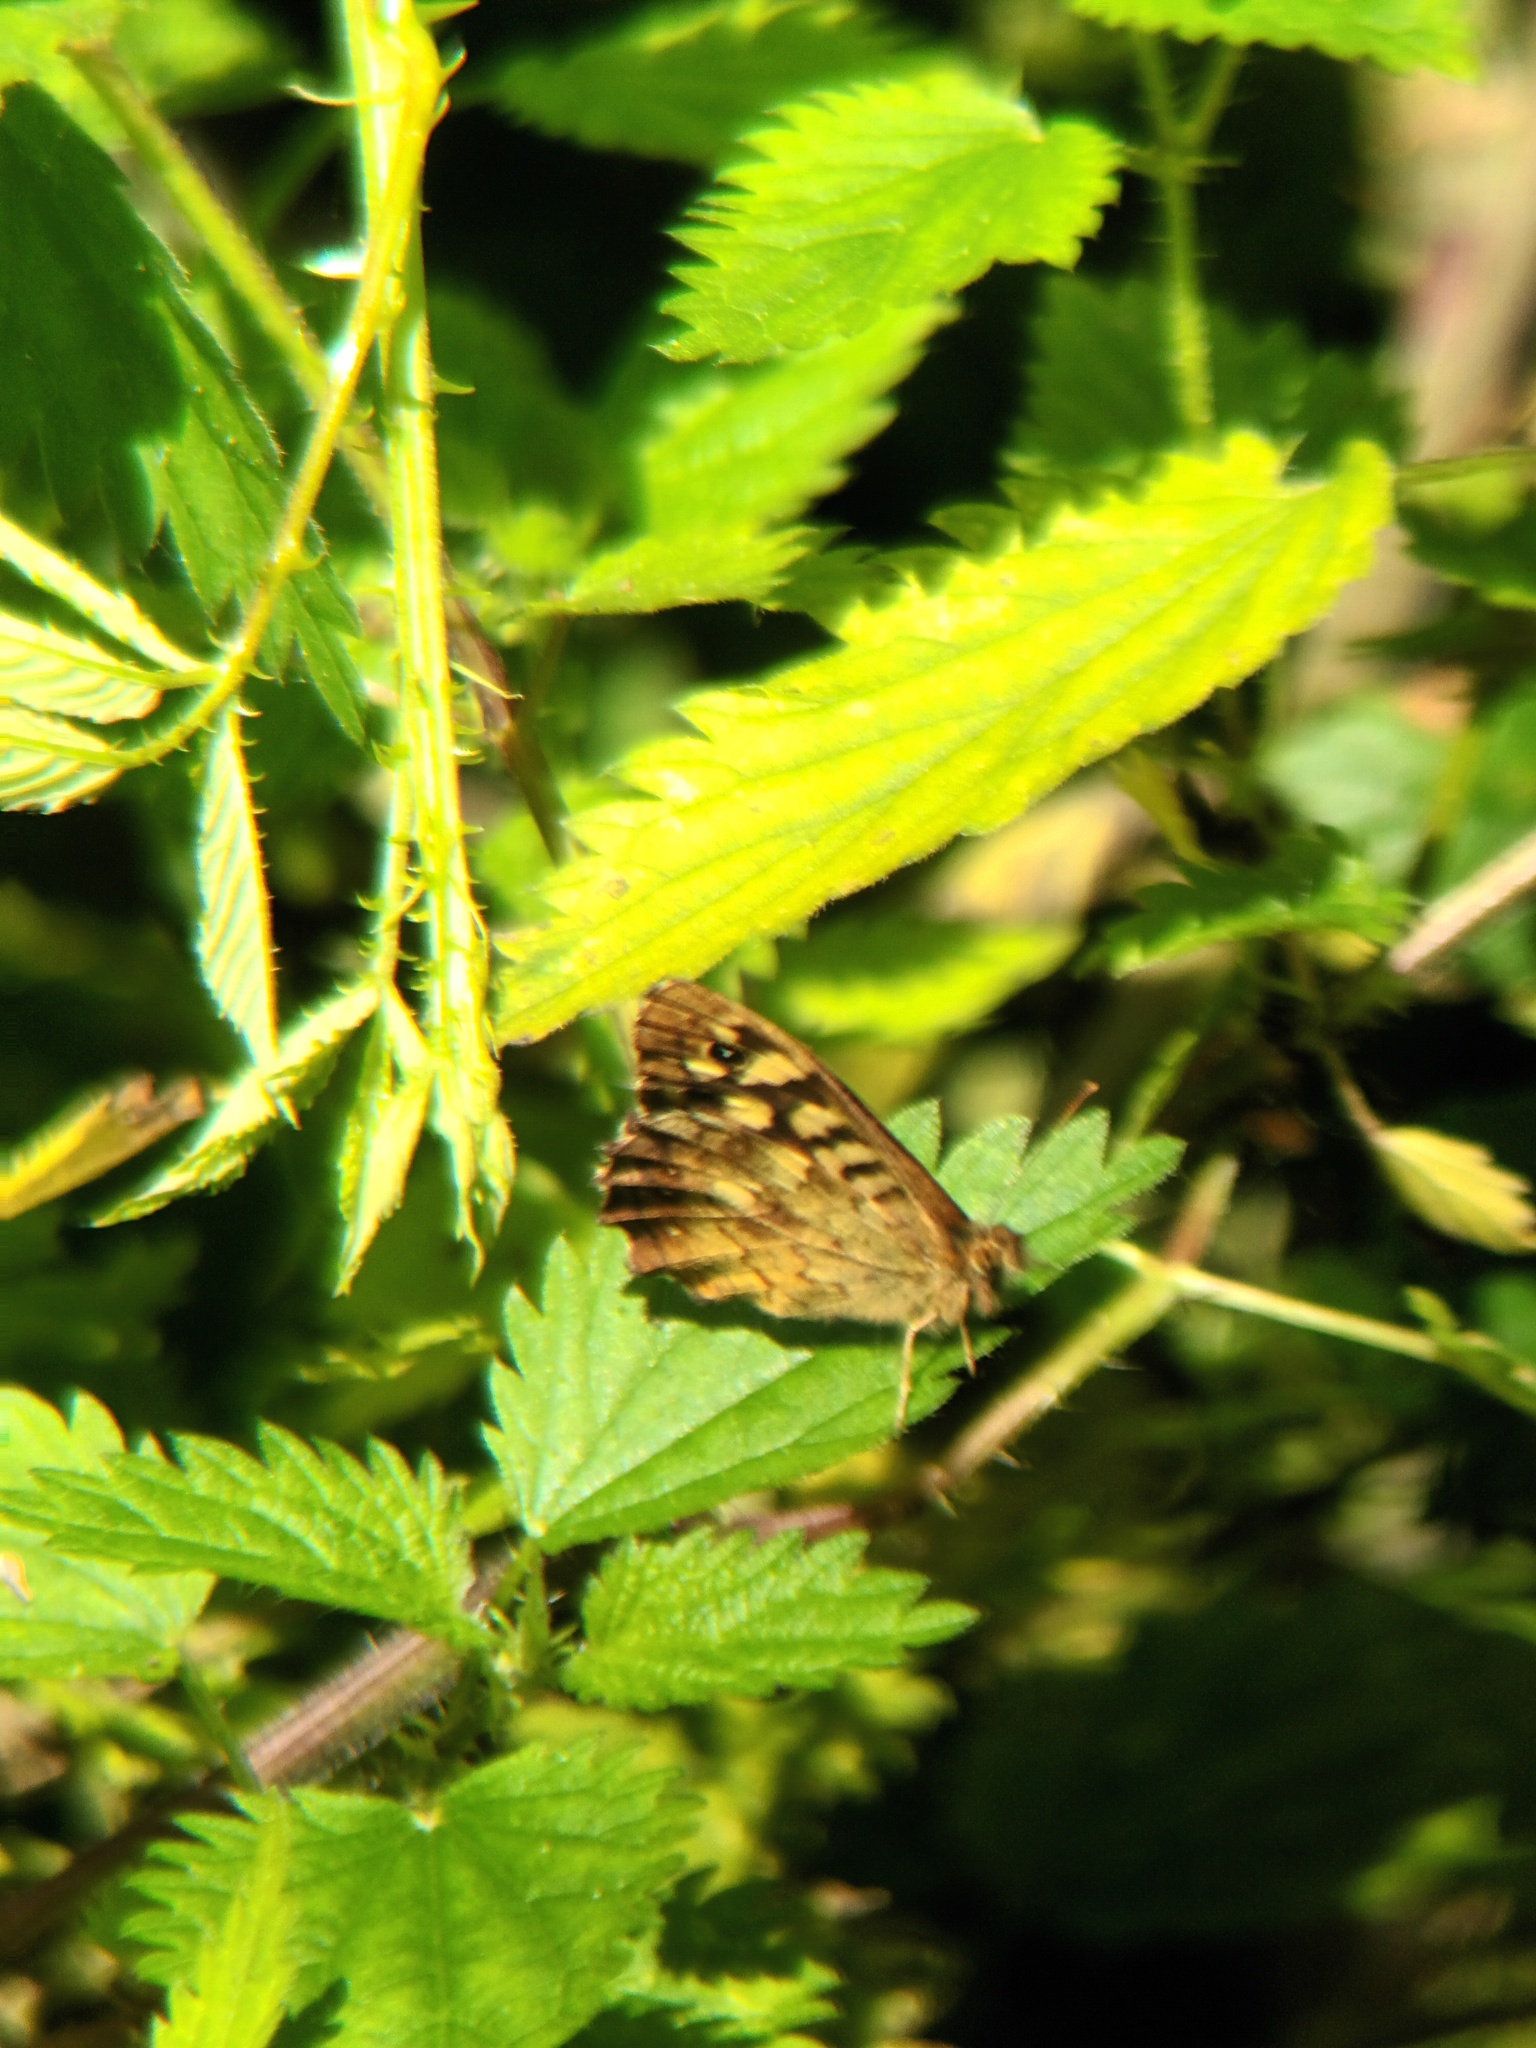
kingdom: Animalia
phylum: Arthropoda
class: Insecta
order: Lepidoptera
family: Nymphalidae
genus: Pararge
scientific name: Pararge aegeria
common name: Speckled wood
